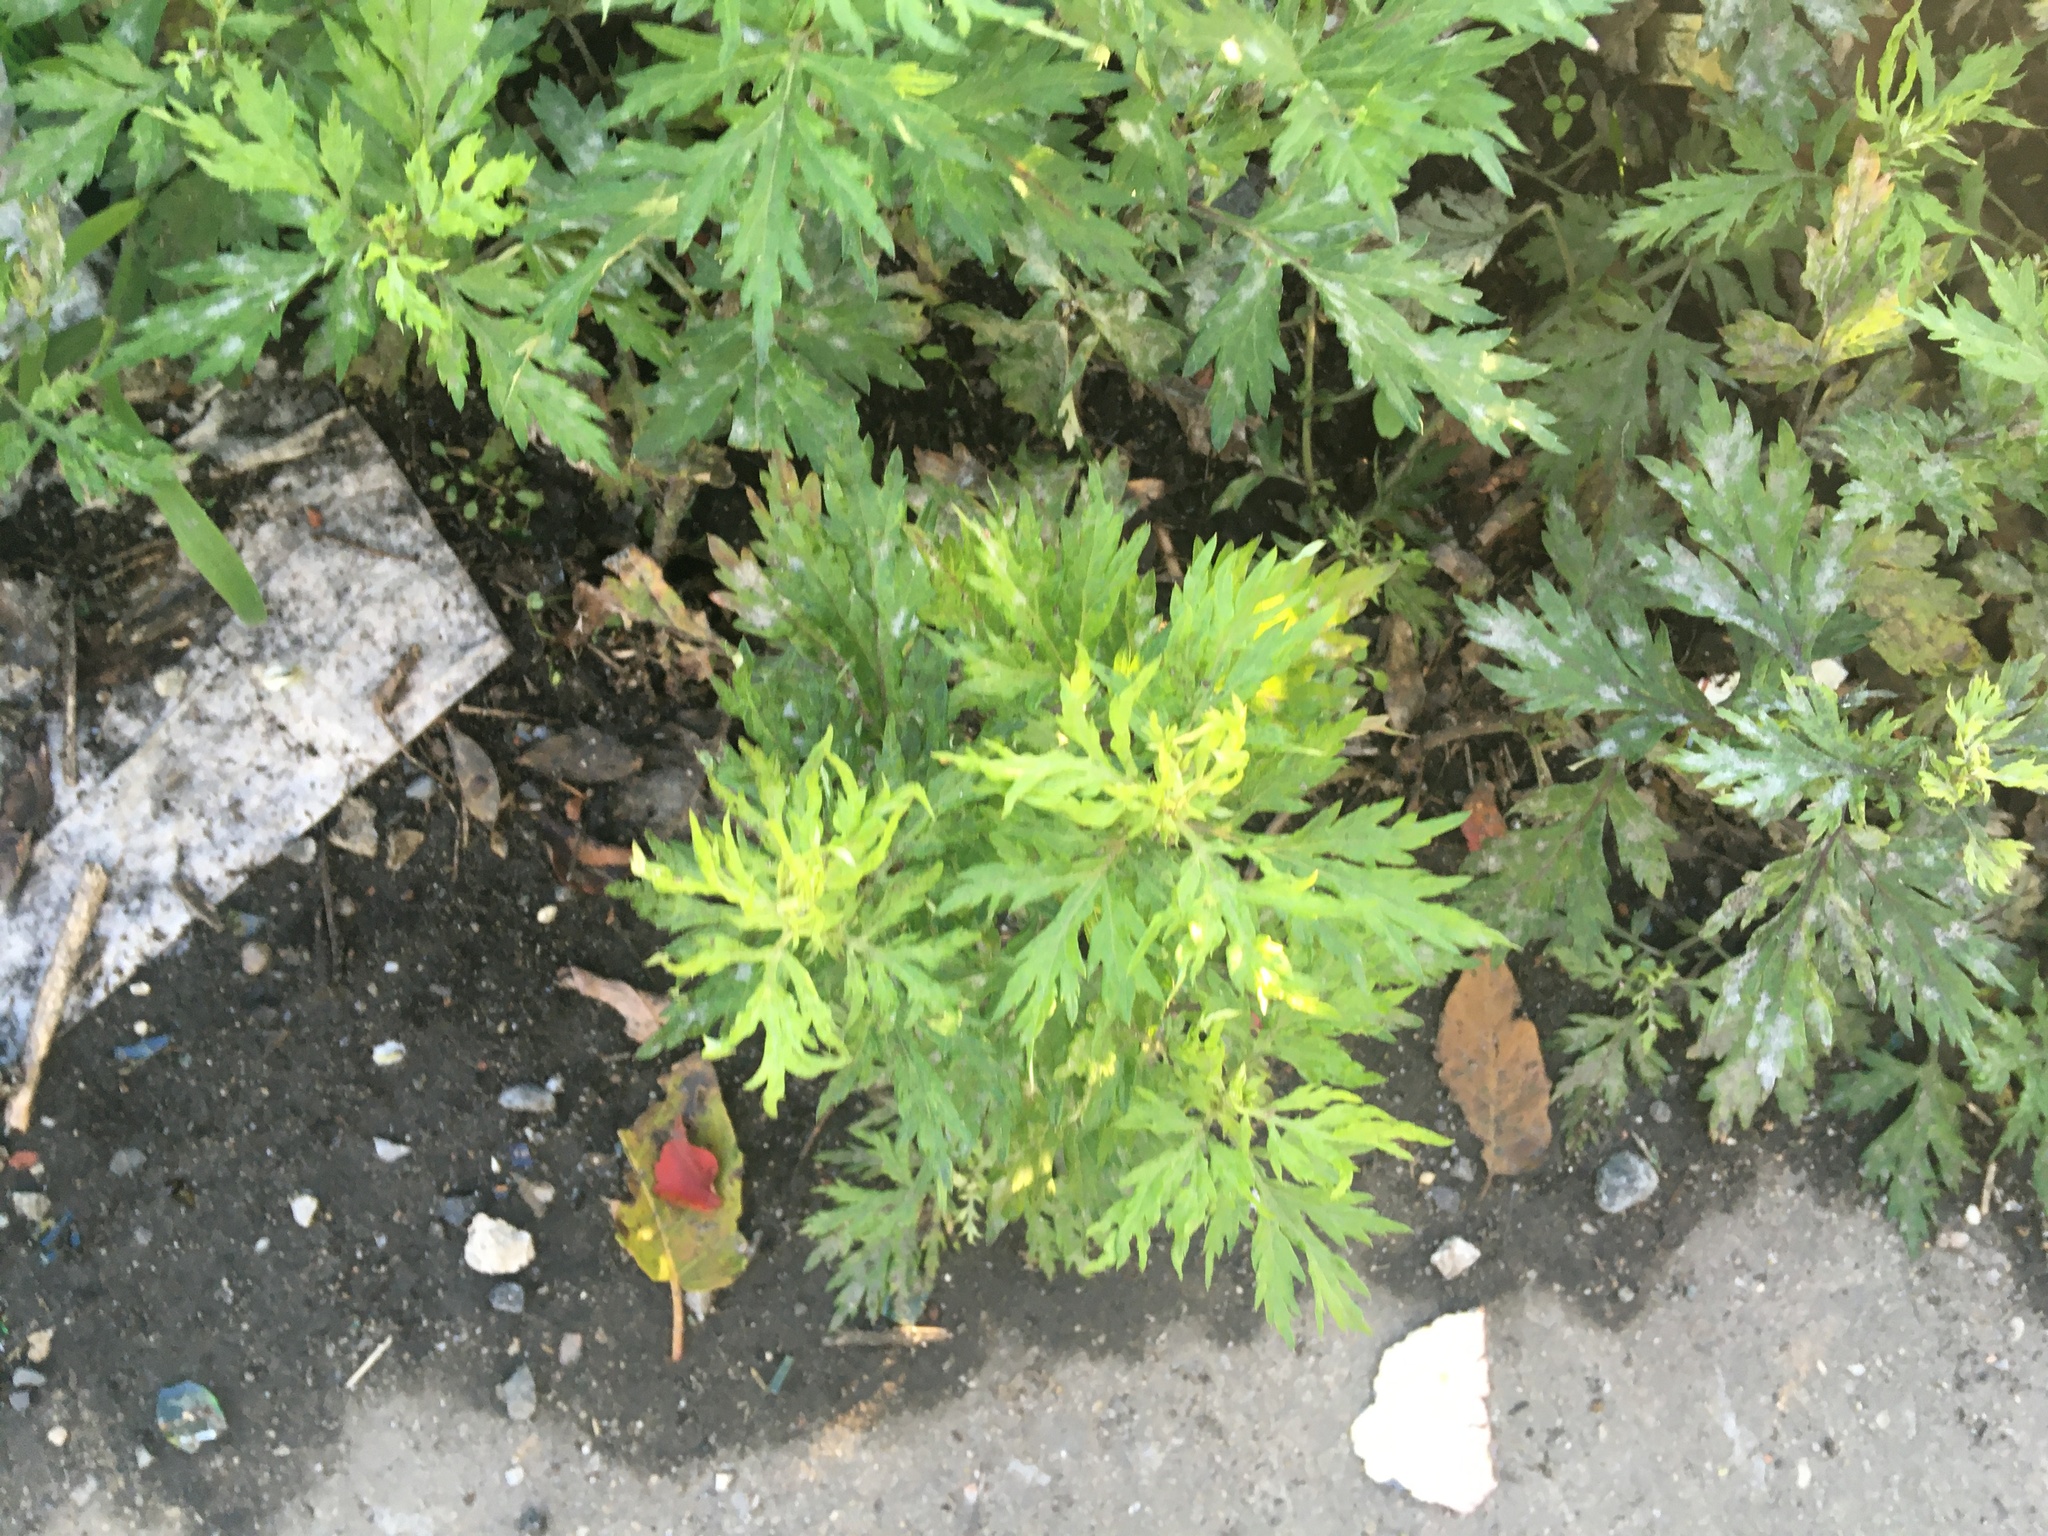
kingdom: Plantae
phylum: Tracheophyta
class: Magnoliopsida
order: Asterales
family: Asteraceae
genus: Artemisia
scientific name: Artemisia vulgaris
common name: Mugwort
